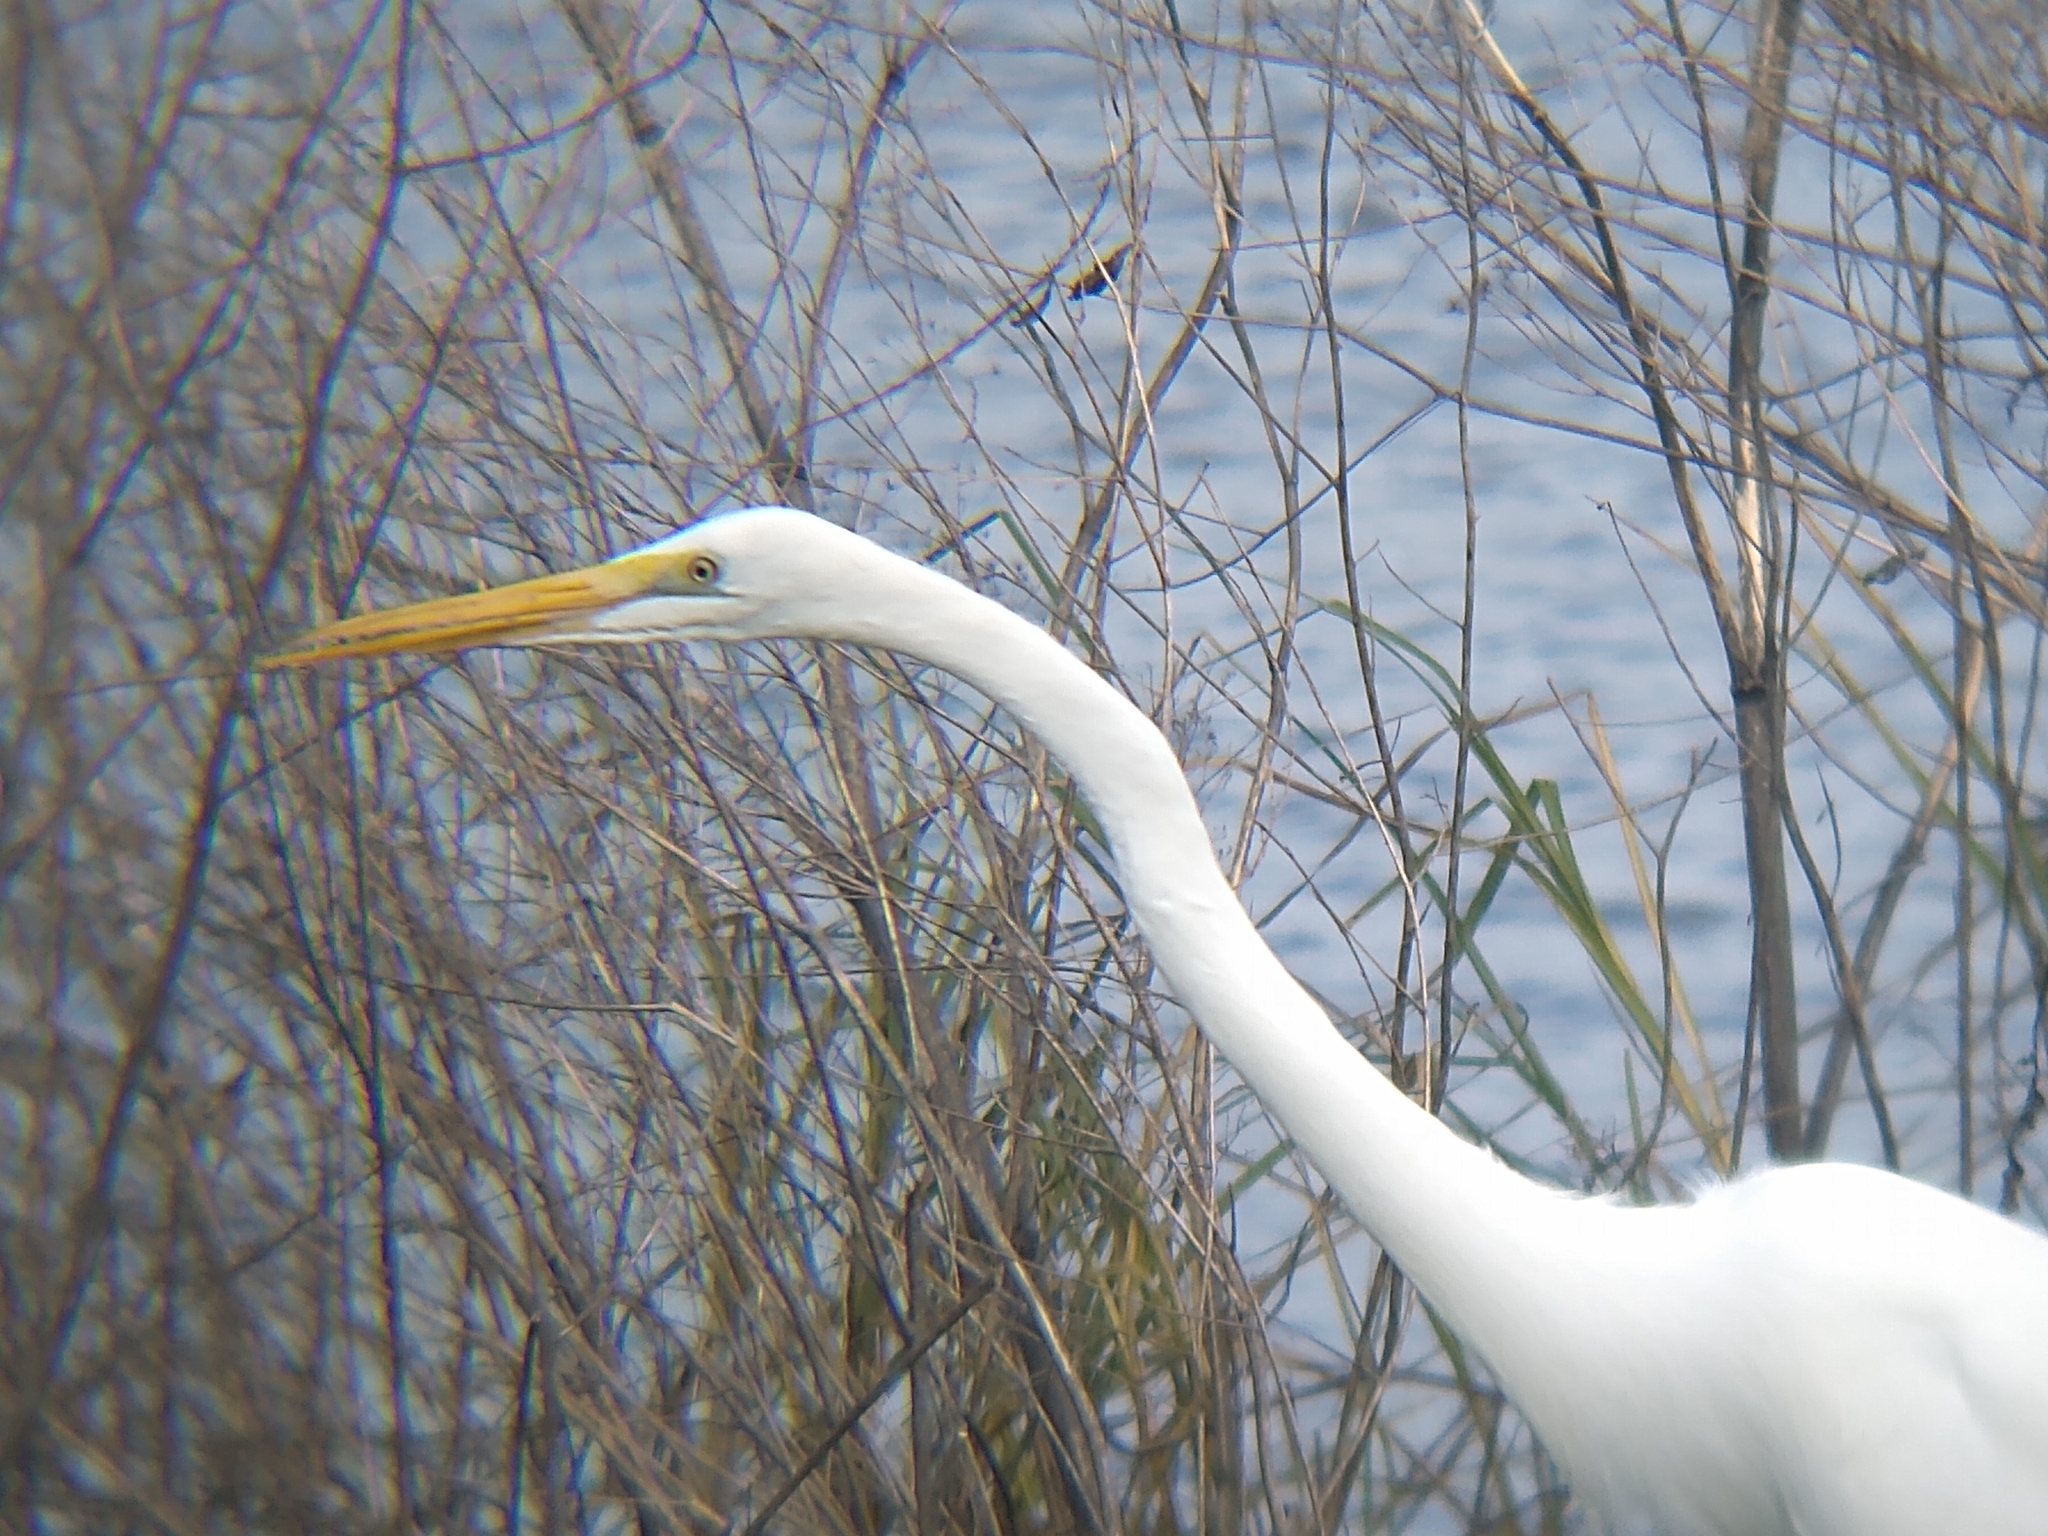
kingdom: Animalia
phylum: Chordata
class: Aves
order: Pelecaniformes
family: Ardeidae
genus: Ardea
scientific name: Ardea alba
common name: Great egret
